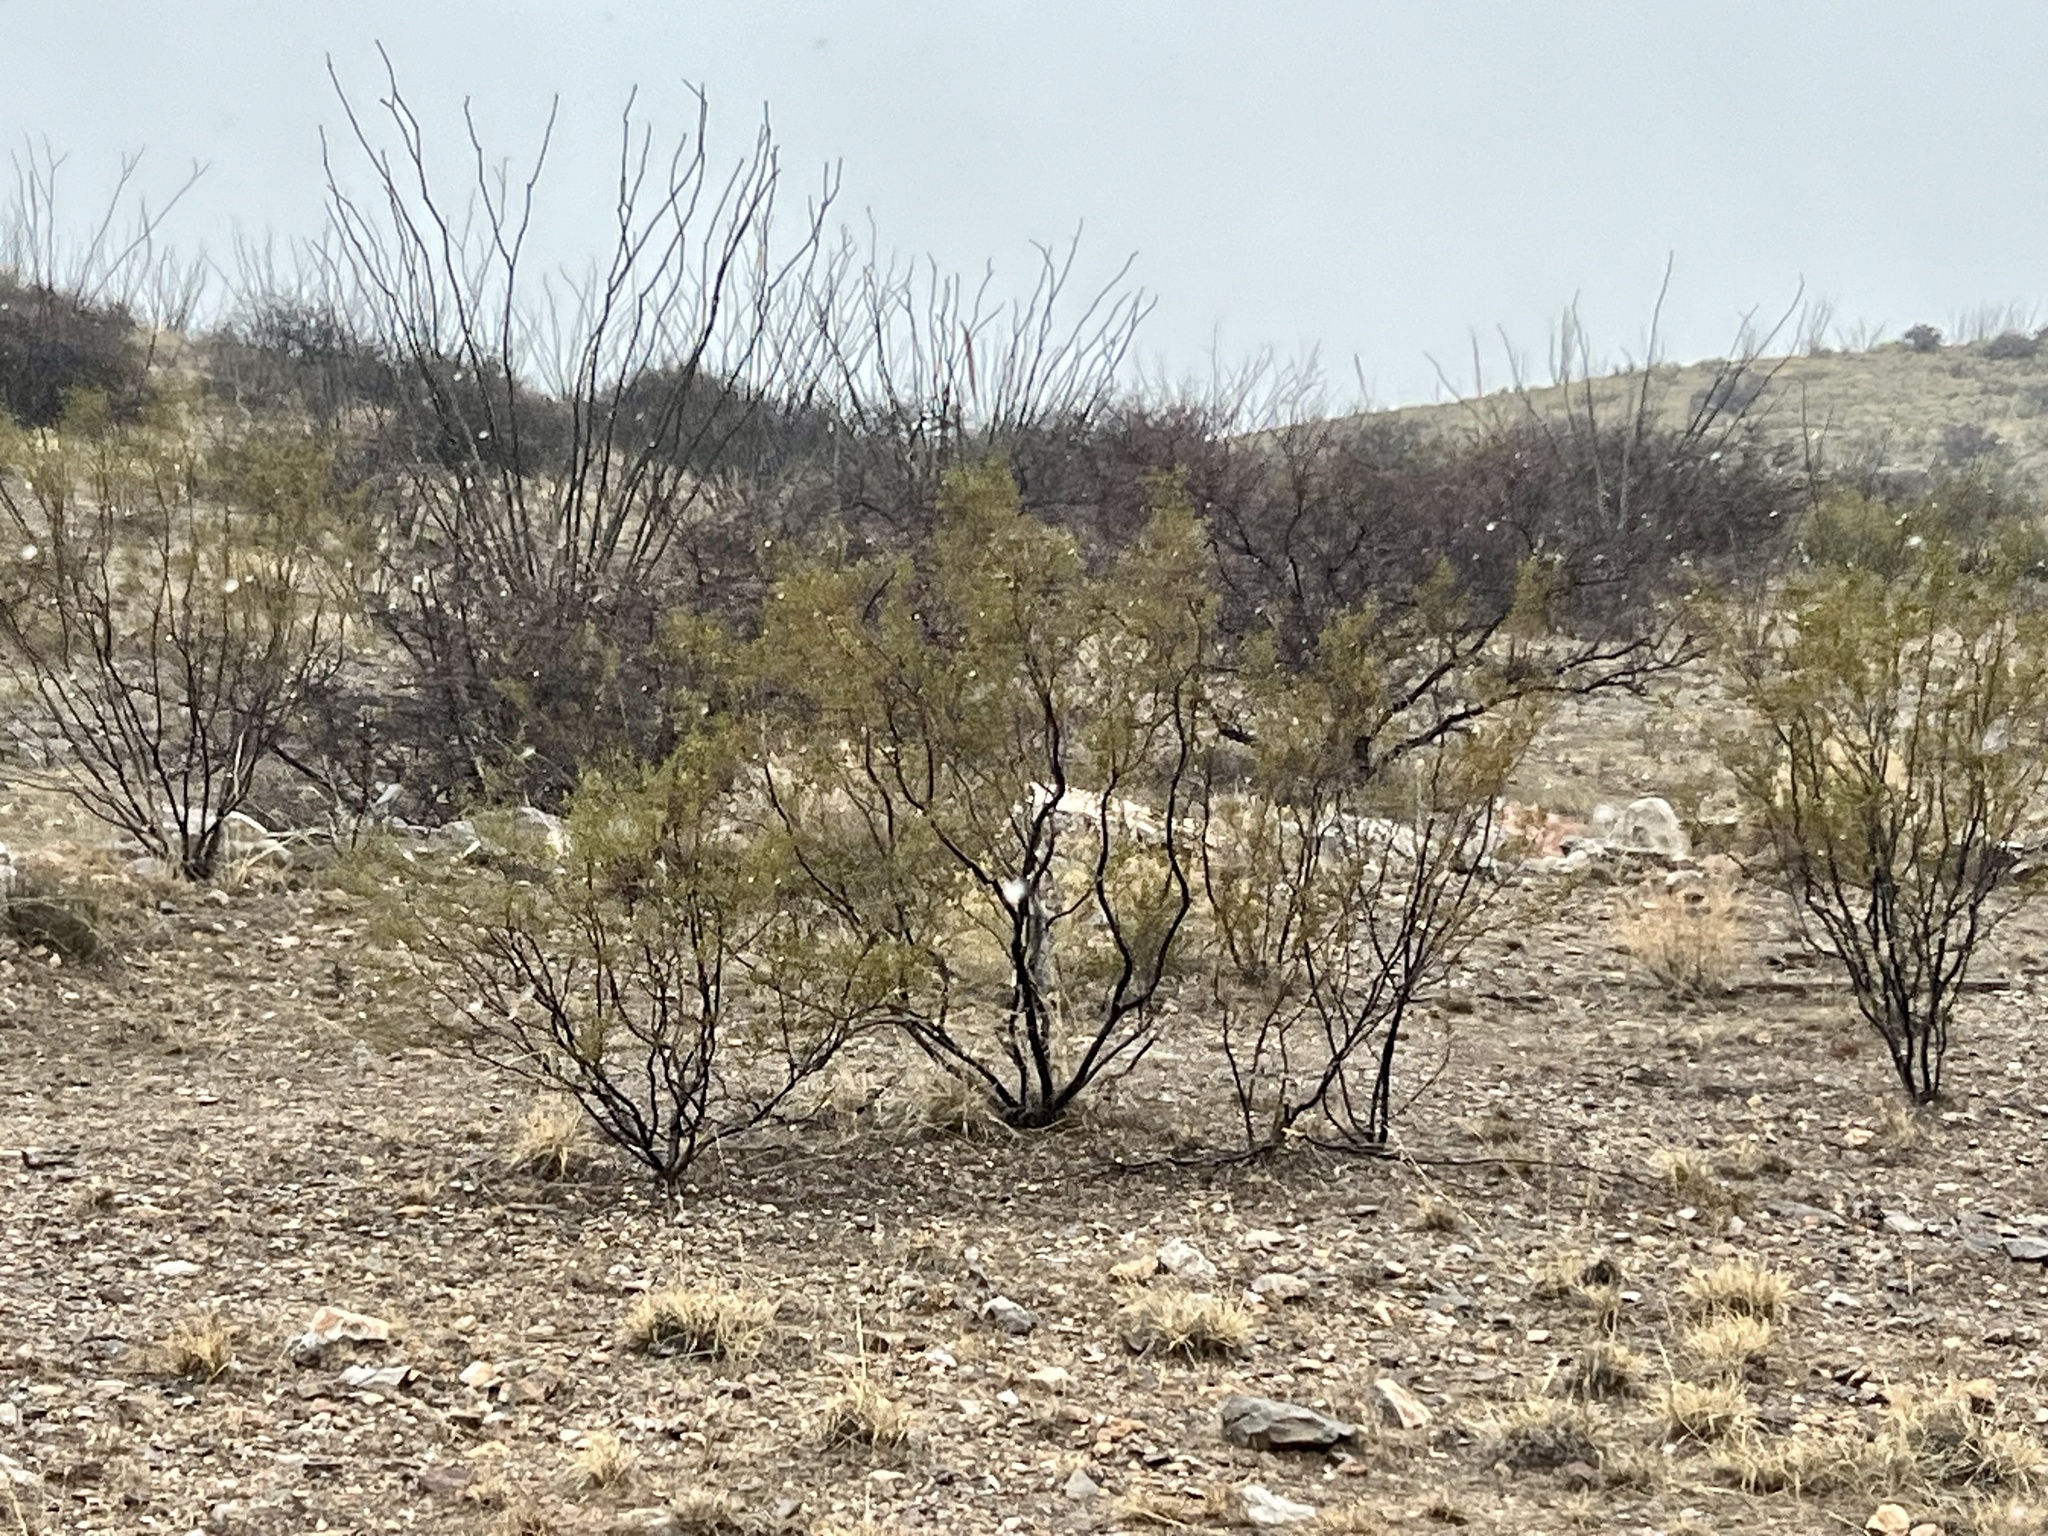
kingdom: Plantae
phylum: Tracheophyta
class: Magnoliopsida
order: Zygophyllales
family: Zygophyllaceae
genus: Larrea
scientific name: Larrea tridentata
